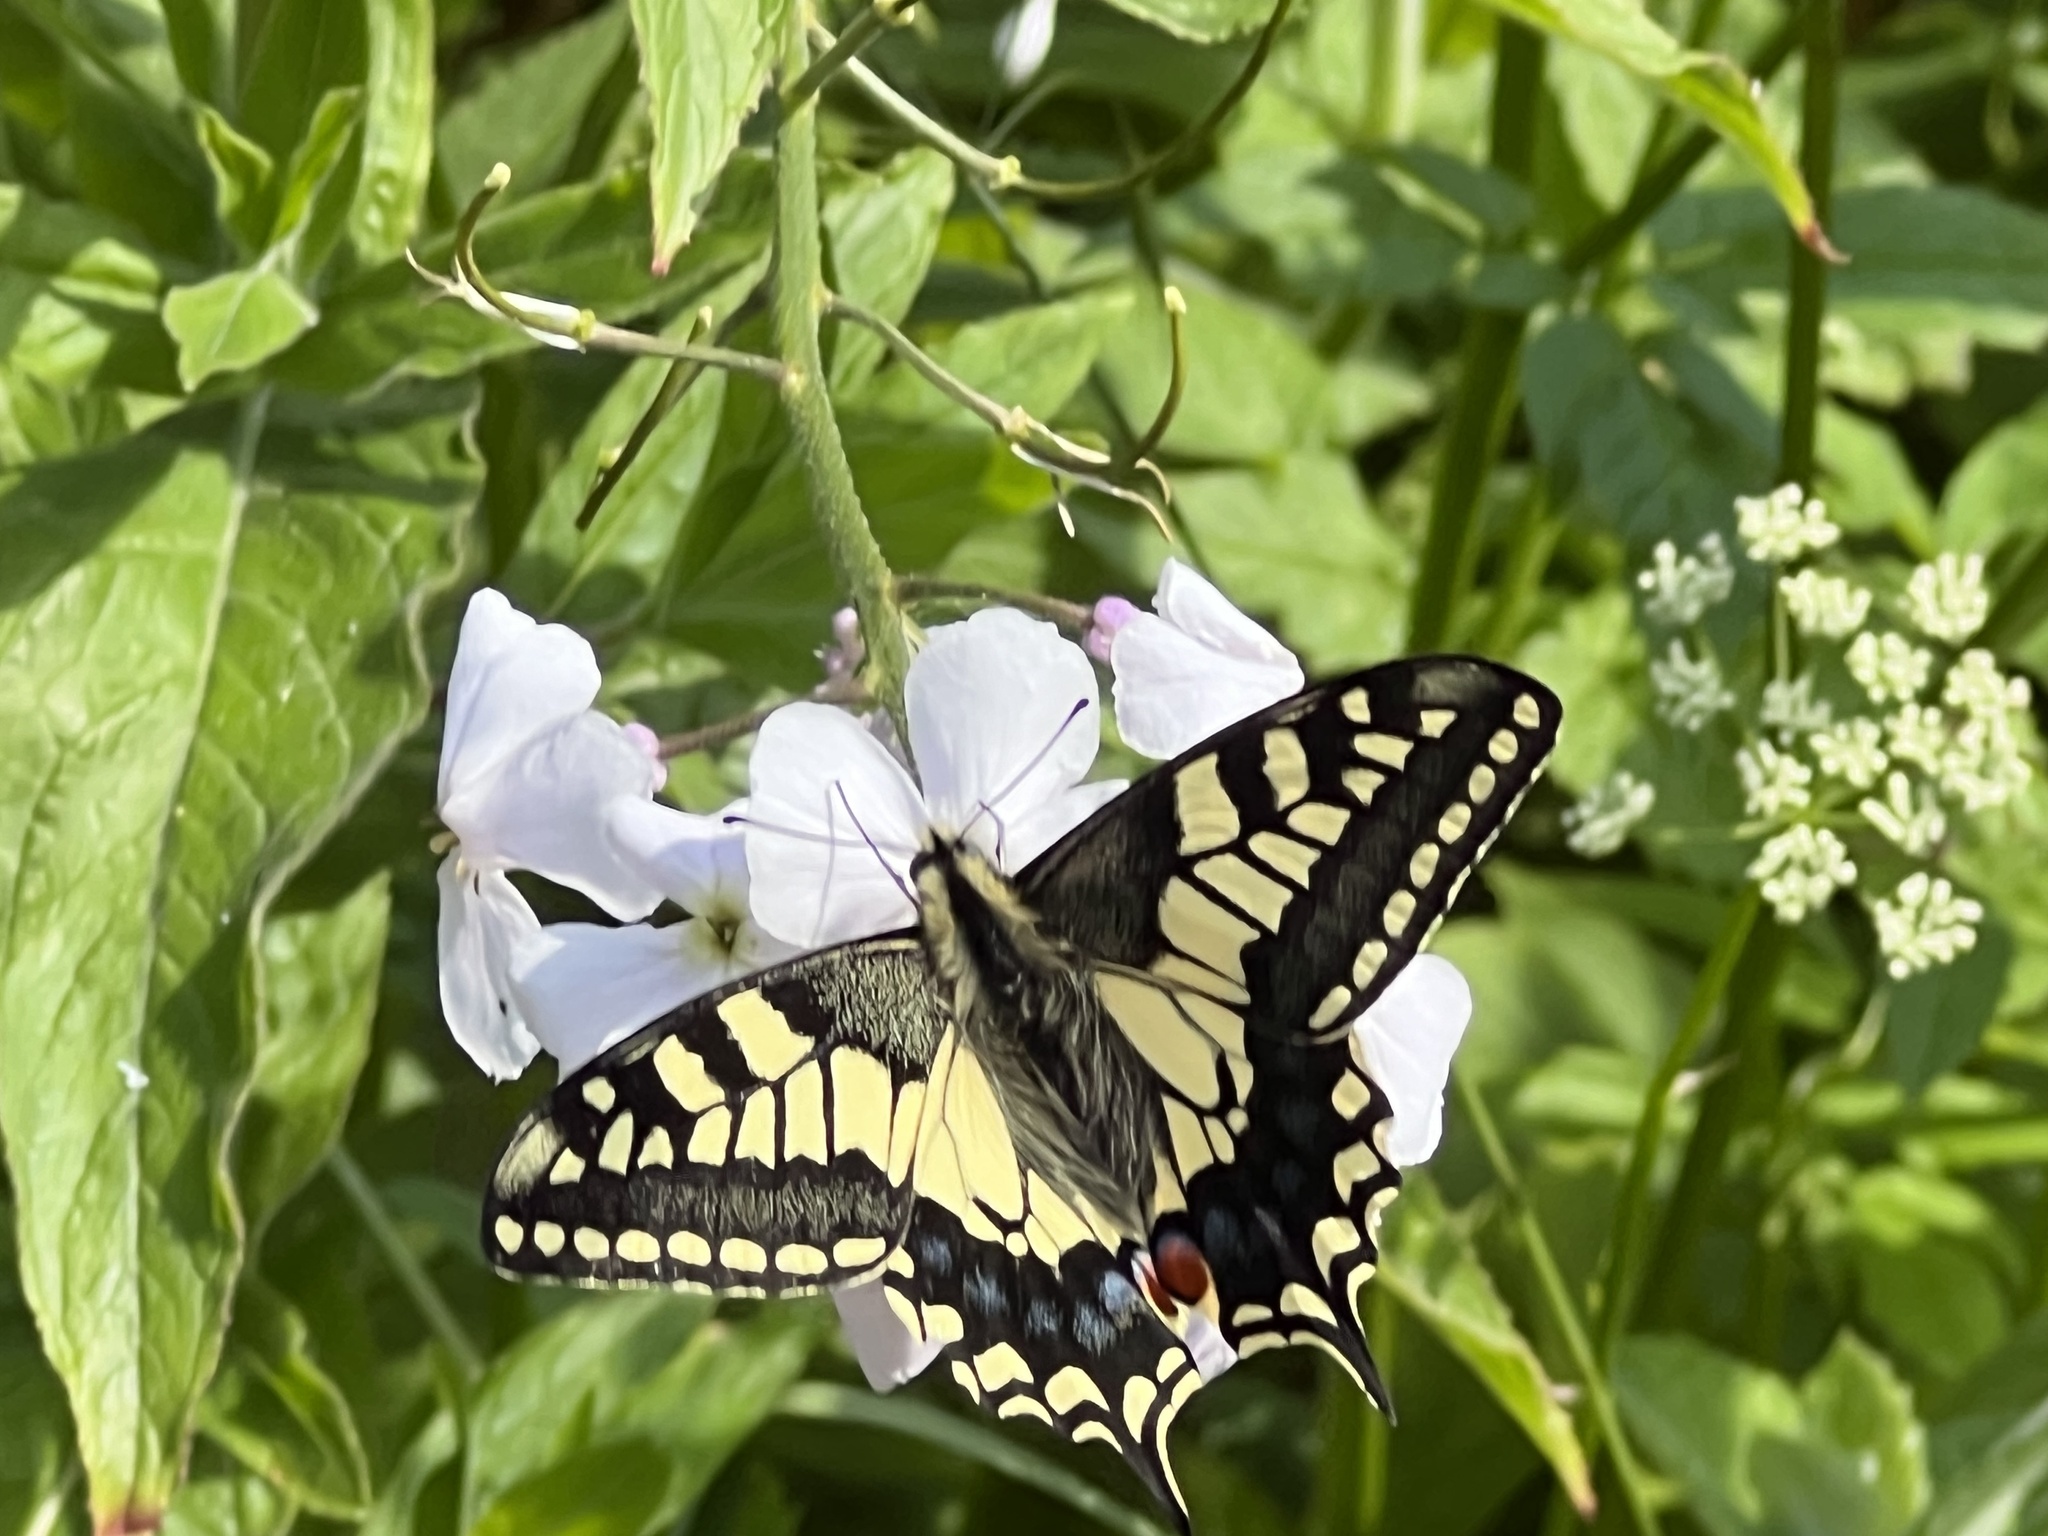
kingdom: Animalia
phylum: Arthropoda
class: Insecta
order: Lepidoptera
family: Papilionidae
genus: Papilio
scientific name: Papilio machaon
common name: Swallowtail
